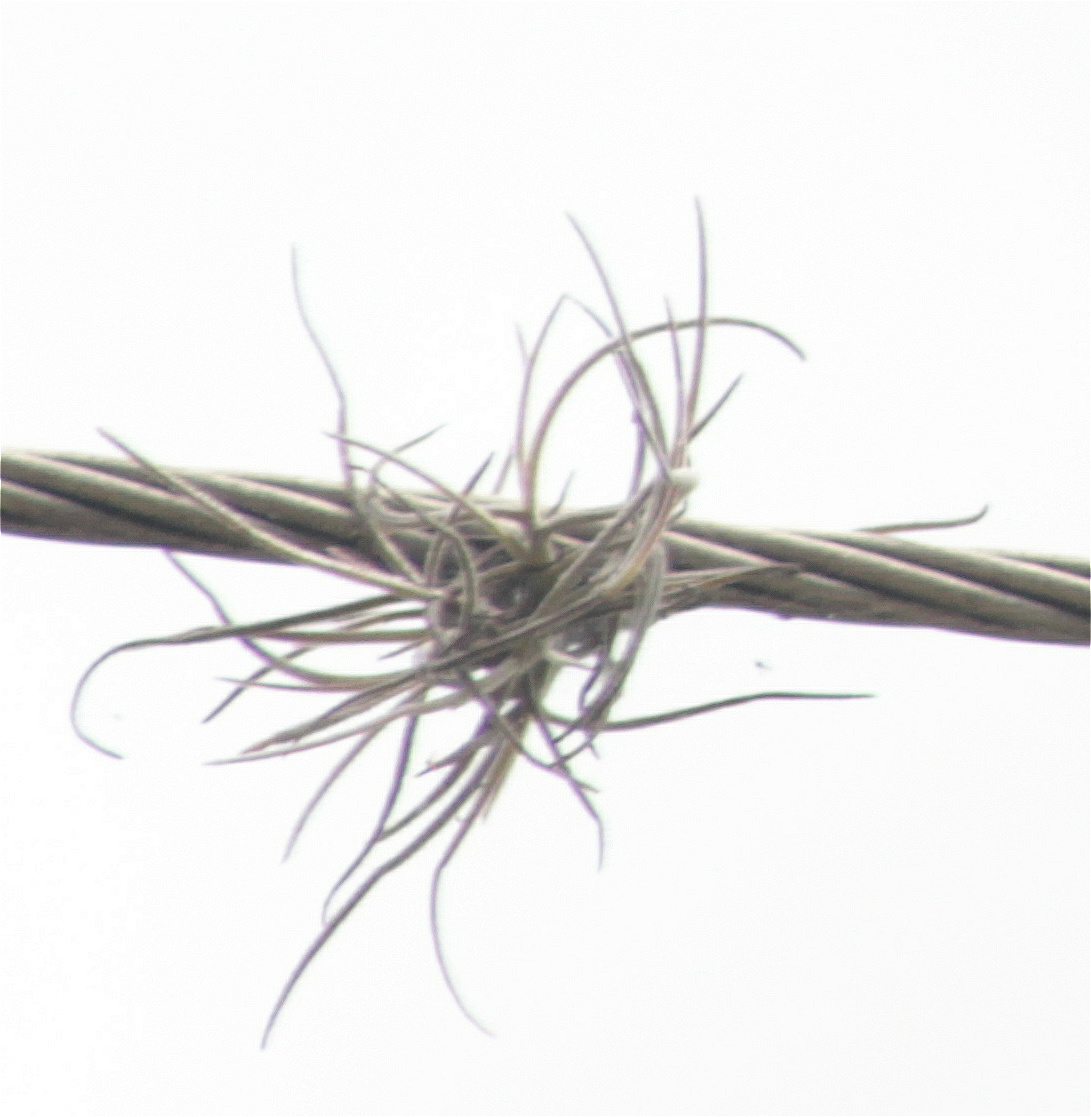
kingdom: Plantae
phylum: Tracheophyta
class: Liliopsida
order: Poales
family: Bromeliaceae
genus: Tillandsia
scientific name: Tillandsia recurvata
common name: Small ballmoss
